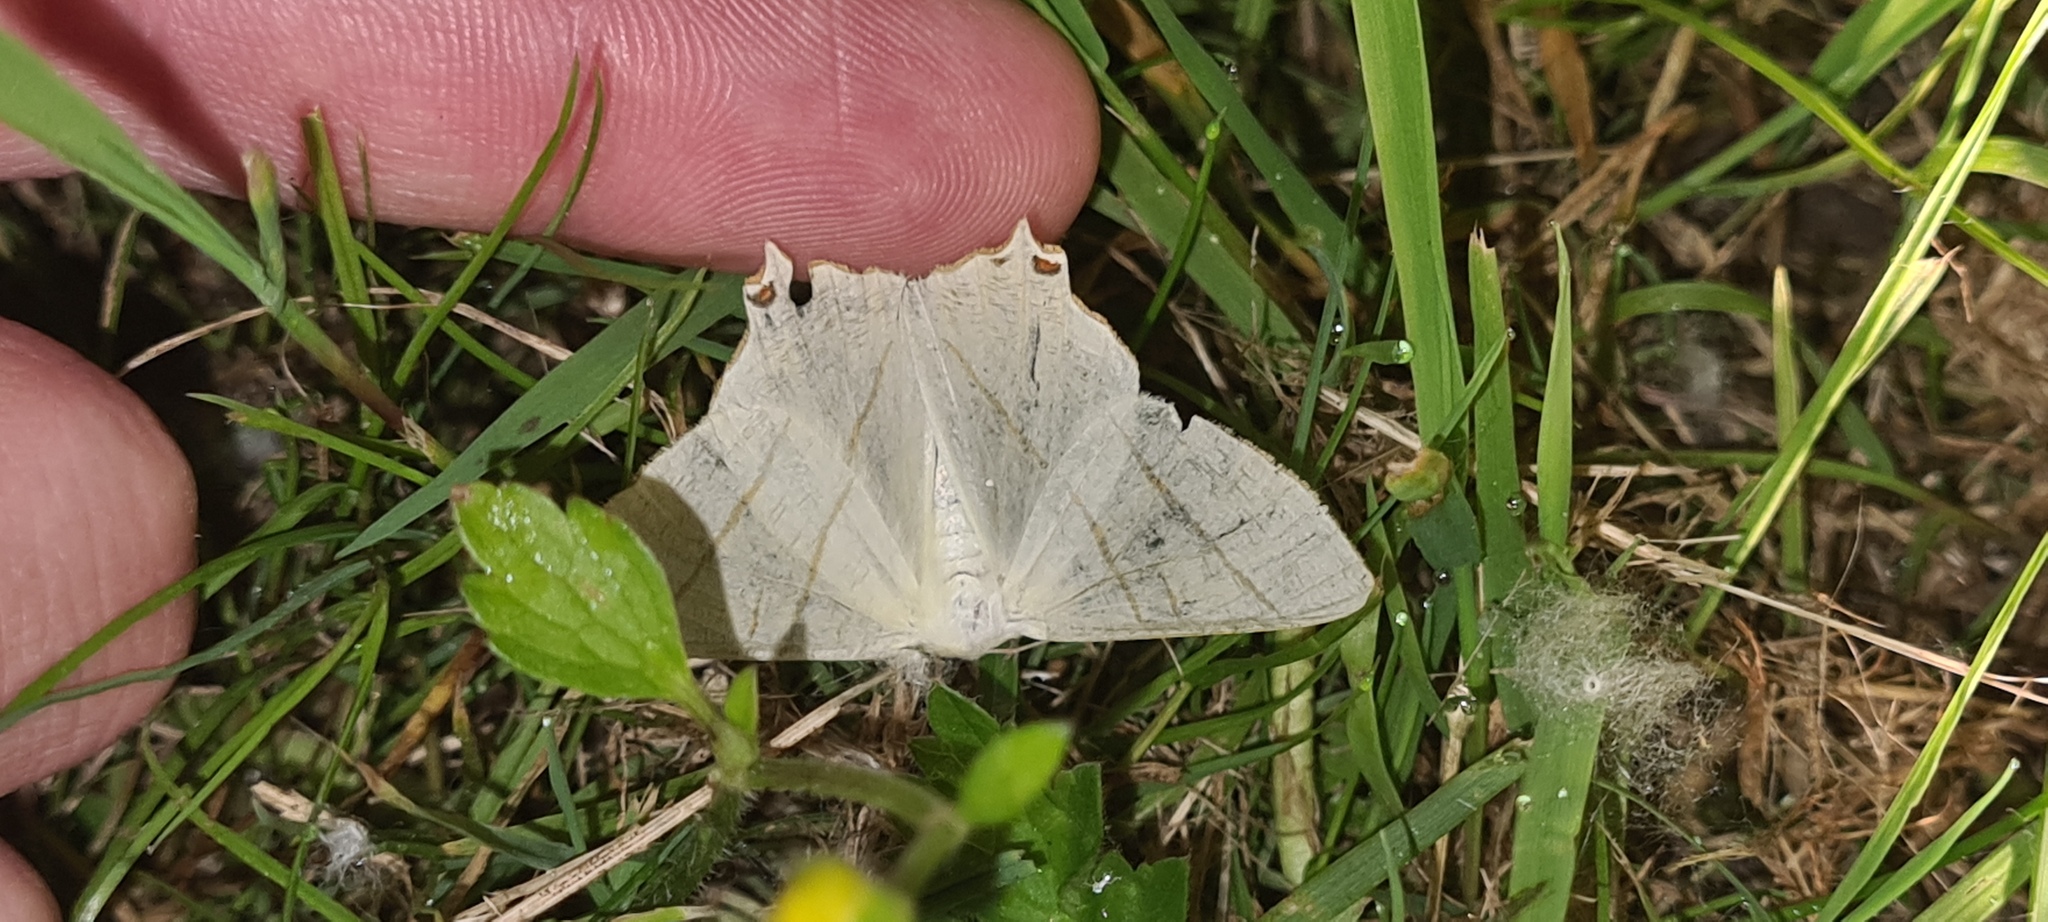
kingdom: Animalia
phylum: Arthropoda
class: Insecta
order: Lepidoptera
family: Geometridae
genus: Ourapteryx
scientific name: Ourapteryx sambucaria
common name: Swallow-tailed moth
